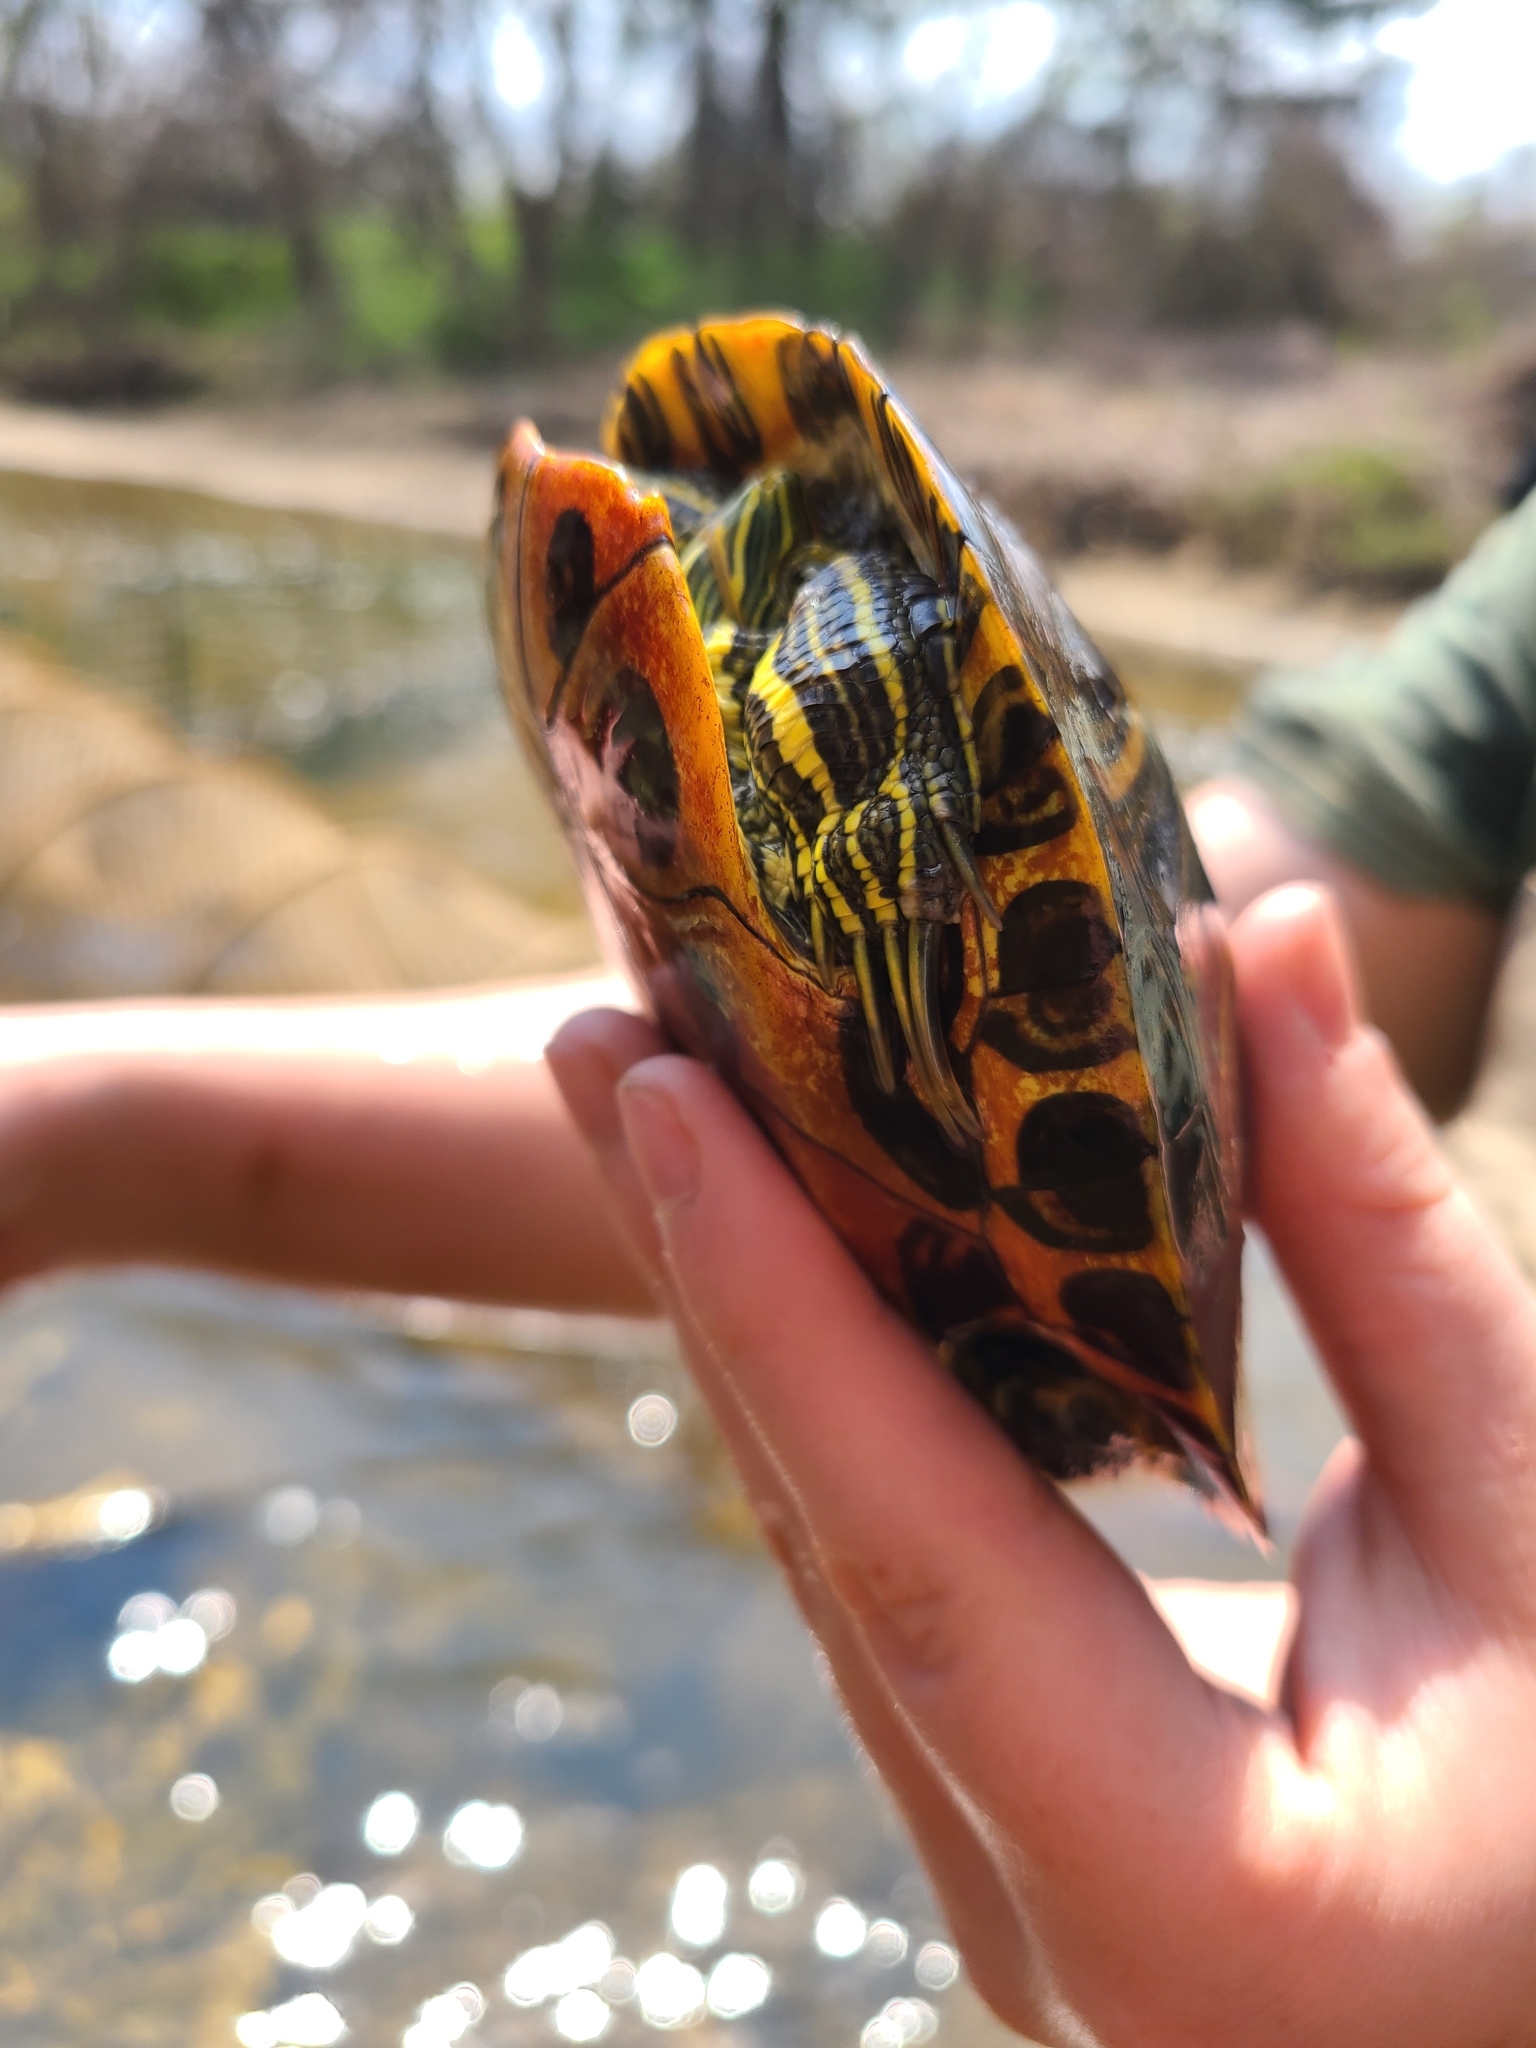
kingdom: Animalia
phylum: Chordata
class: Testudines
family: Emydidae
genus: Trachemys
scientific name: Trachemys scripta
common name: Slider
